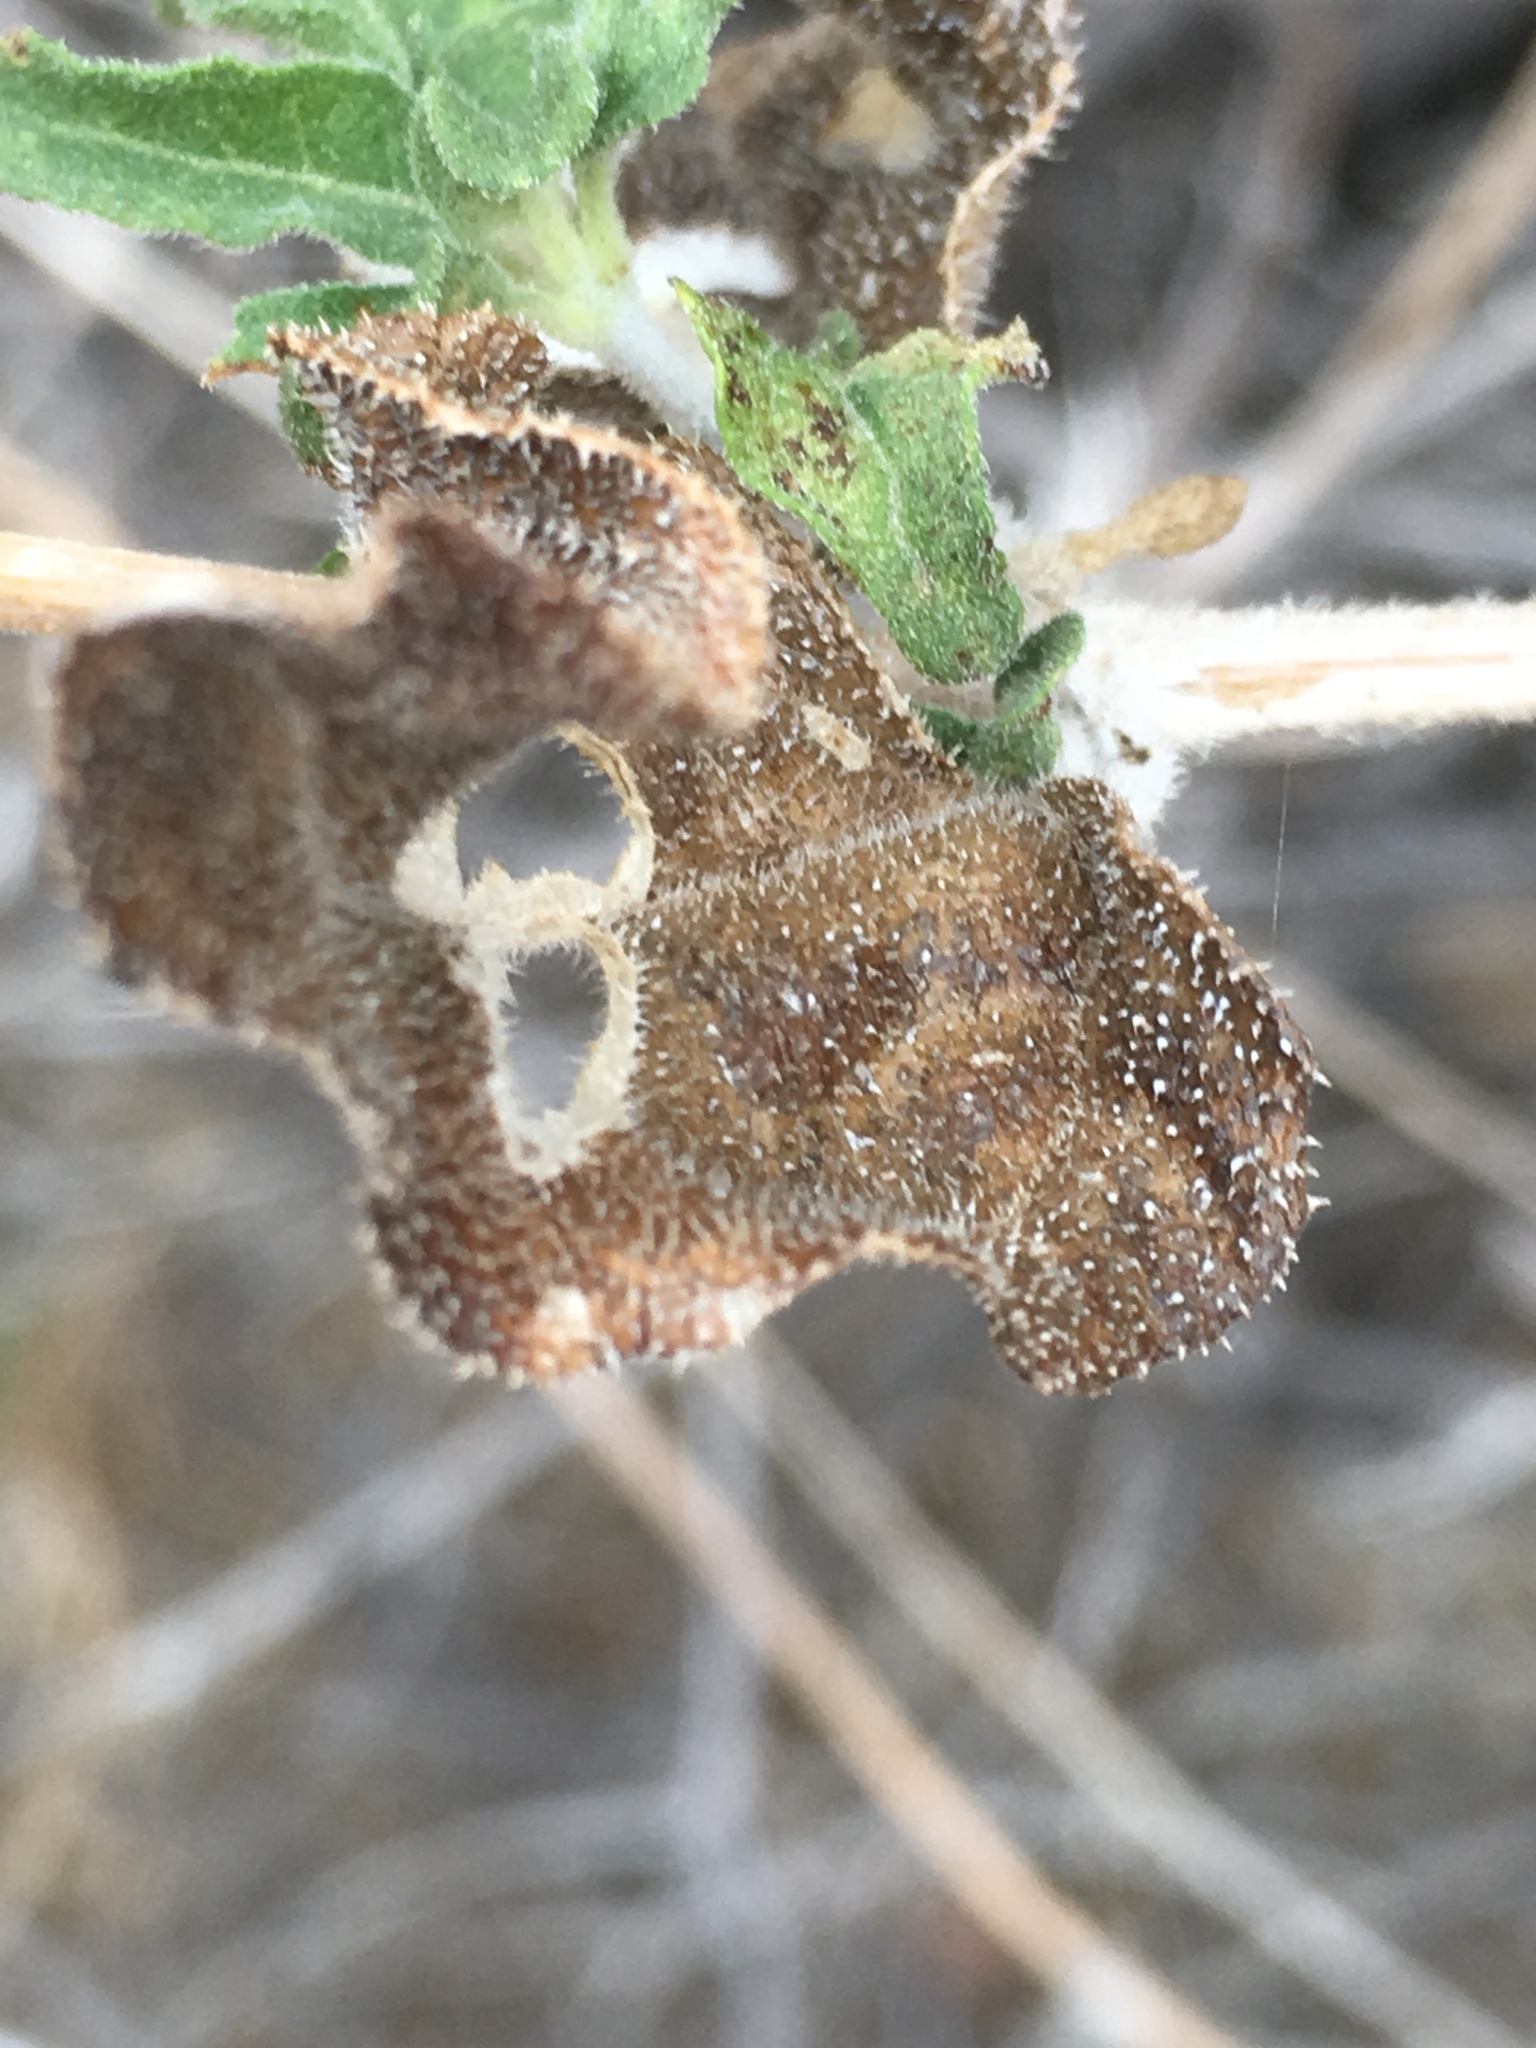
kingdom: Plantae
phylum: Tracheophyta
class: Magnoliopsida
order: Asterales
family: Asteraceae
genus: Bahiopsis
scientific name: Bahiopsis parishii
